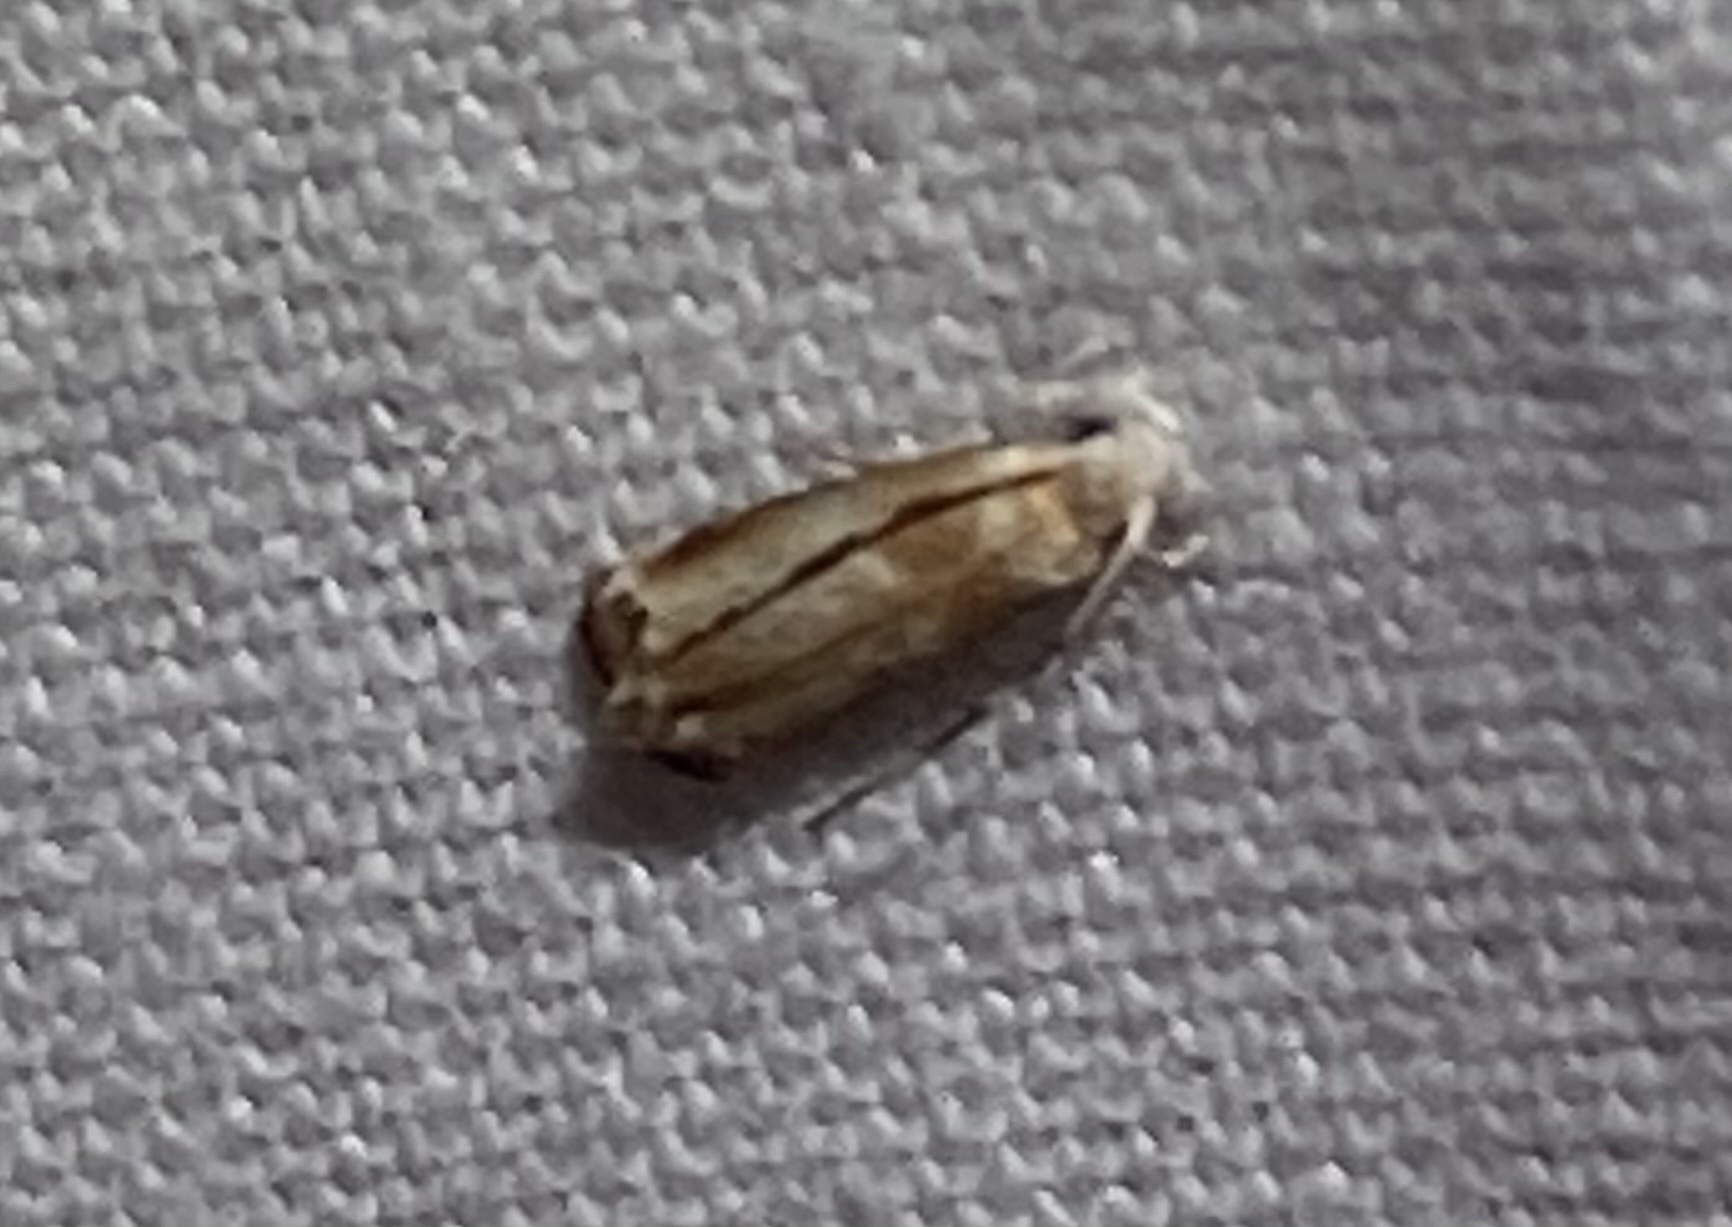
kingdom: Animalia
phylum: Arthropoda
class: Insecta
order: Lepidoptera
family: Dryadaulidae
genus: Dryadaula
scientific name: Dryadaula terpsichorella
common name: Dancing moth
